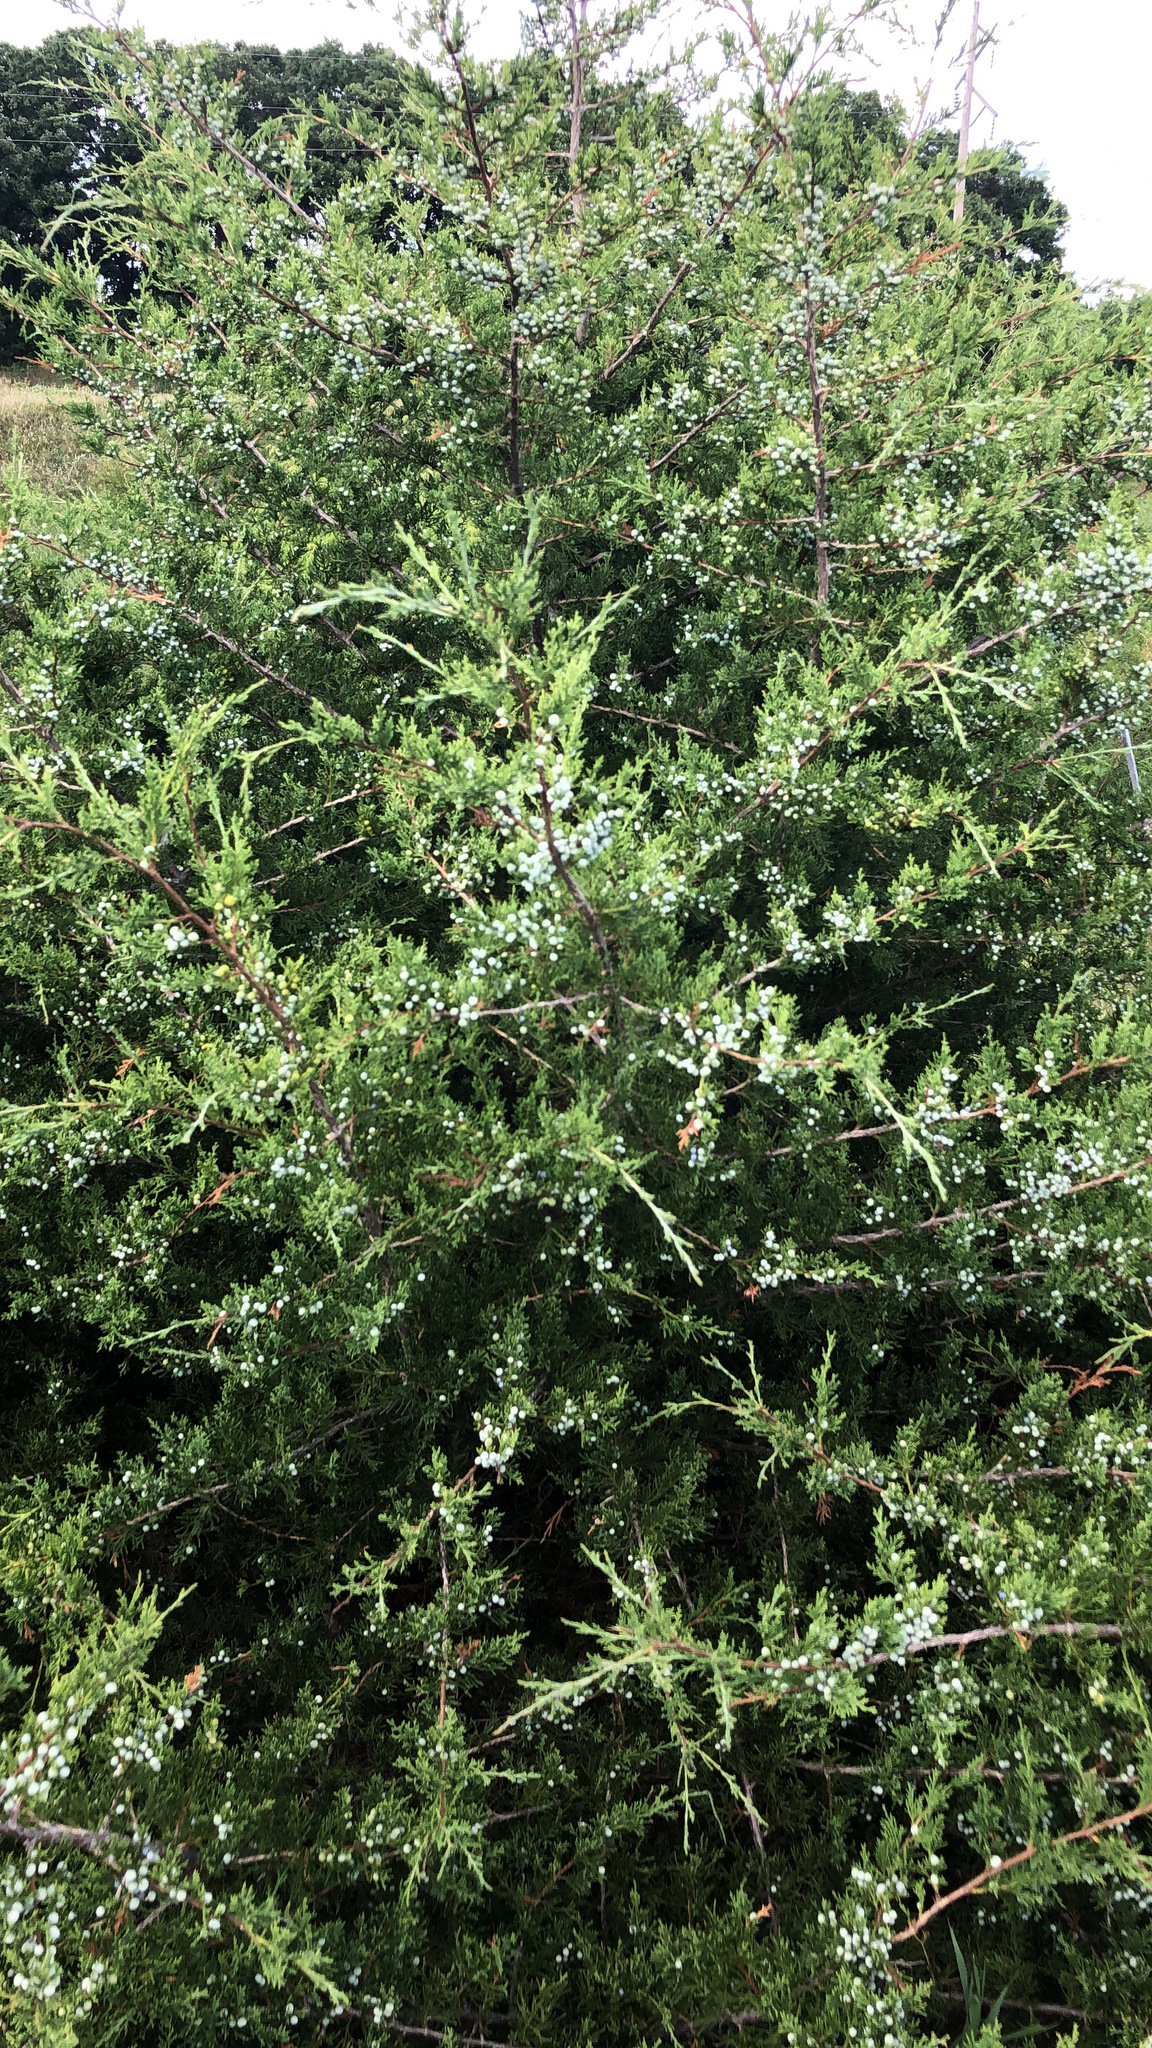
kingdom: Plantae
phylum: Tracheophyta
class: Pinopsida
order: Pinales
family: Cupressaceae
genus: Juniperus
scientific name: Juniperus virginiana
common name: Red juniper
